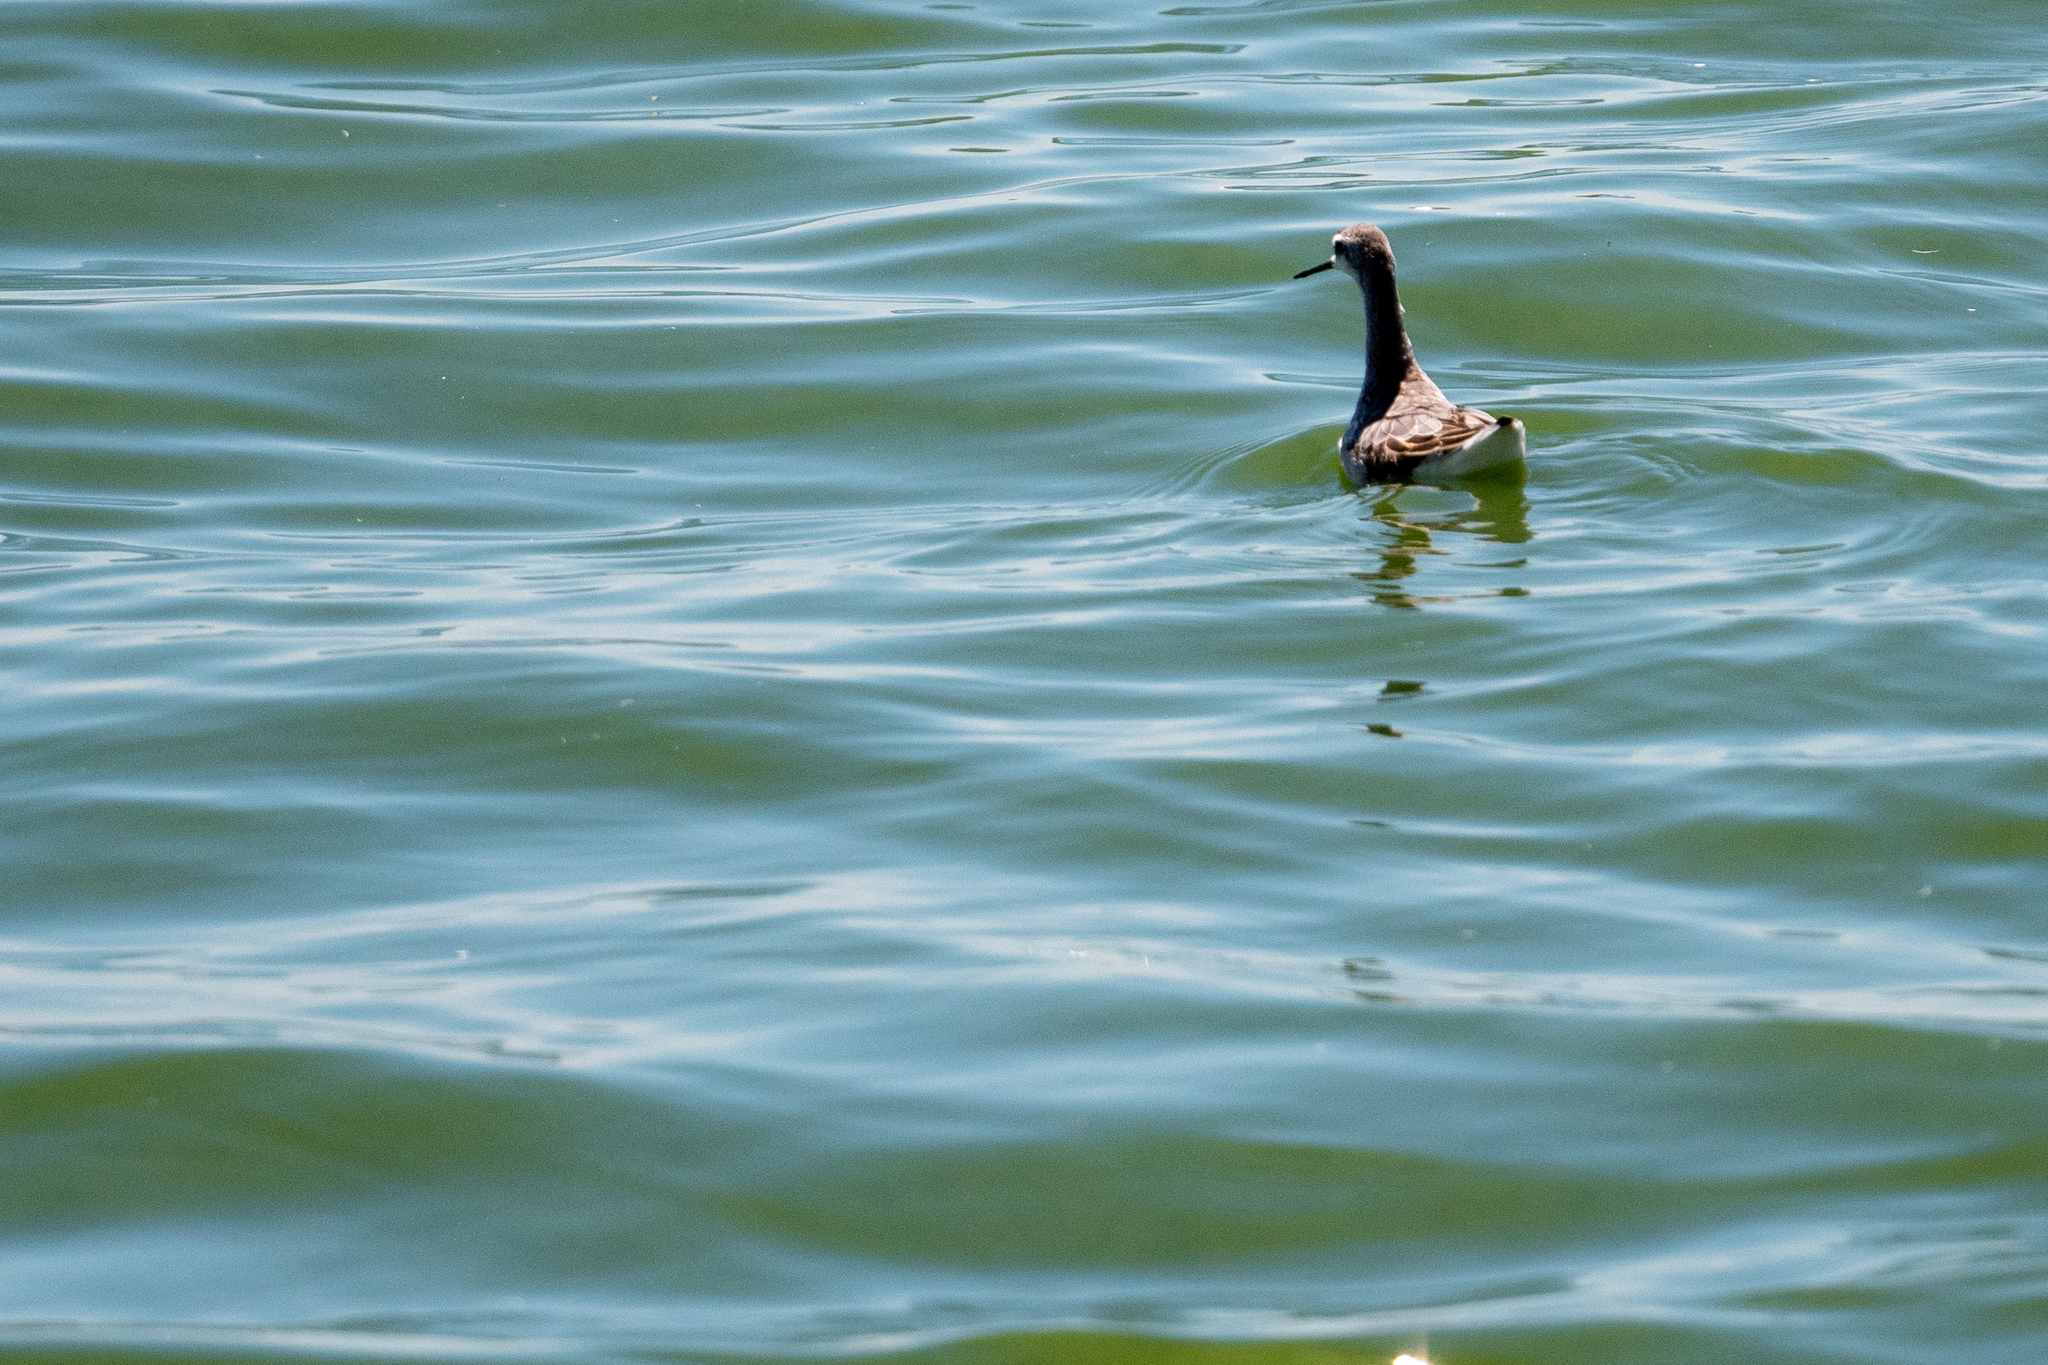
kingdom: Animalia
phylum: Chordata
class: Aves
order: Charadriiformes
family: Scolopacidae
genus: Phalaropus
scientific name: Phalaropus tricolor
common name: Wilson's phalarope
